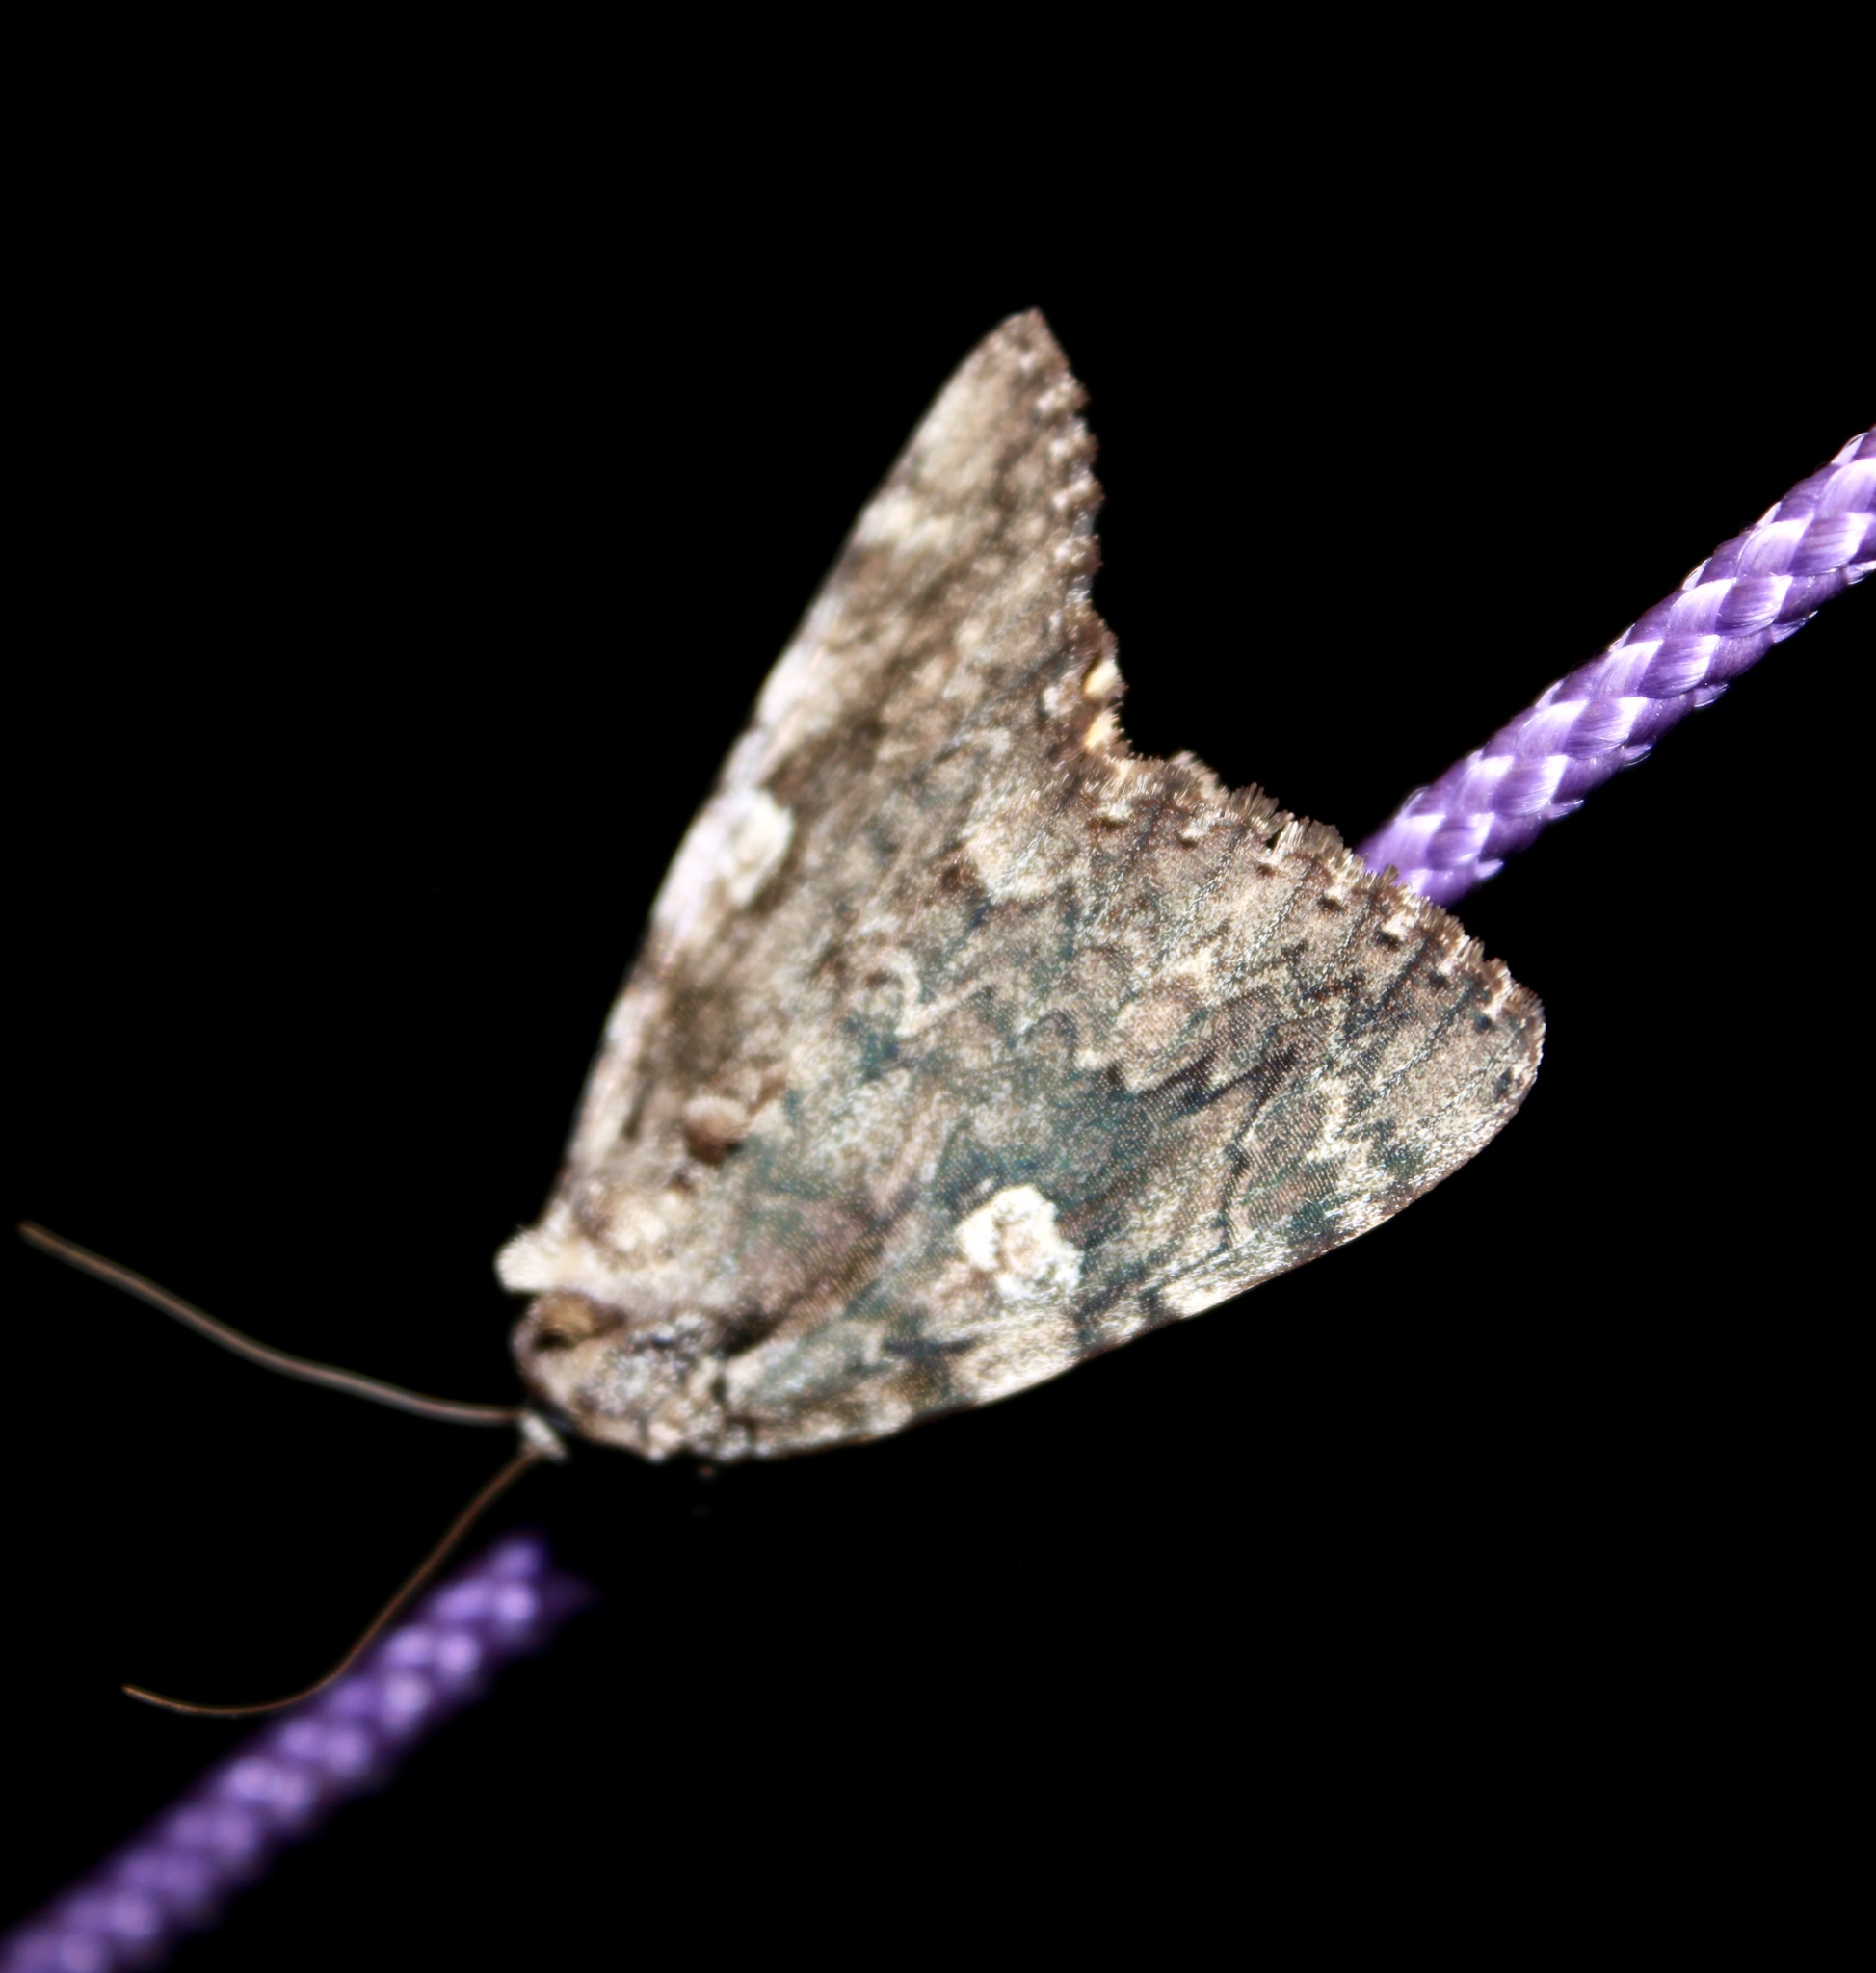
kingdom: Animalia
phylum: Arthropoda
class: Insecta
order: Lepidoptera
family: Erebidae
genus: Catocala
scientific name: Catocala ilia
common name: Ilia underwing
